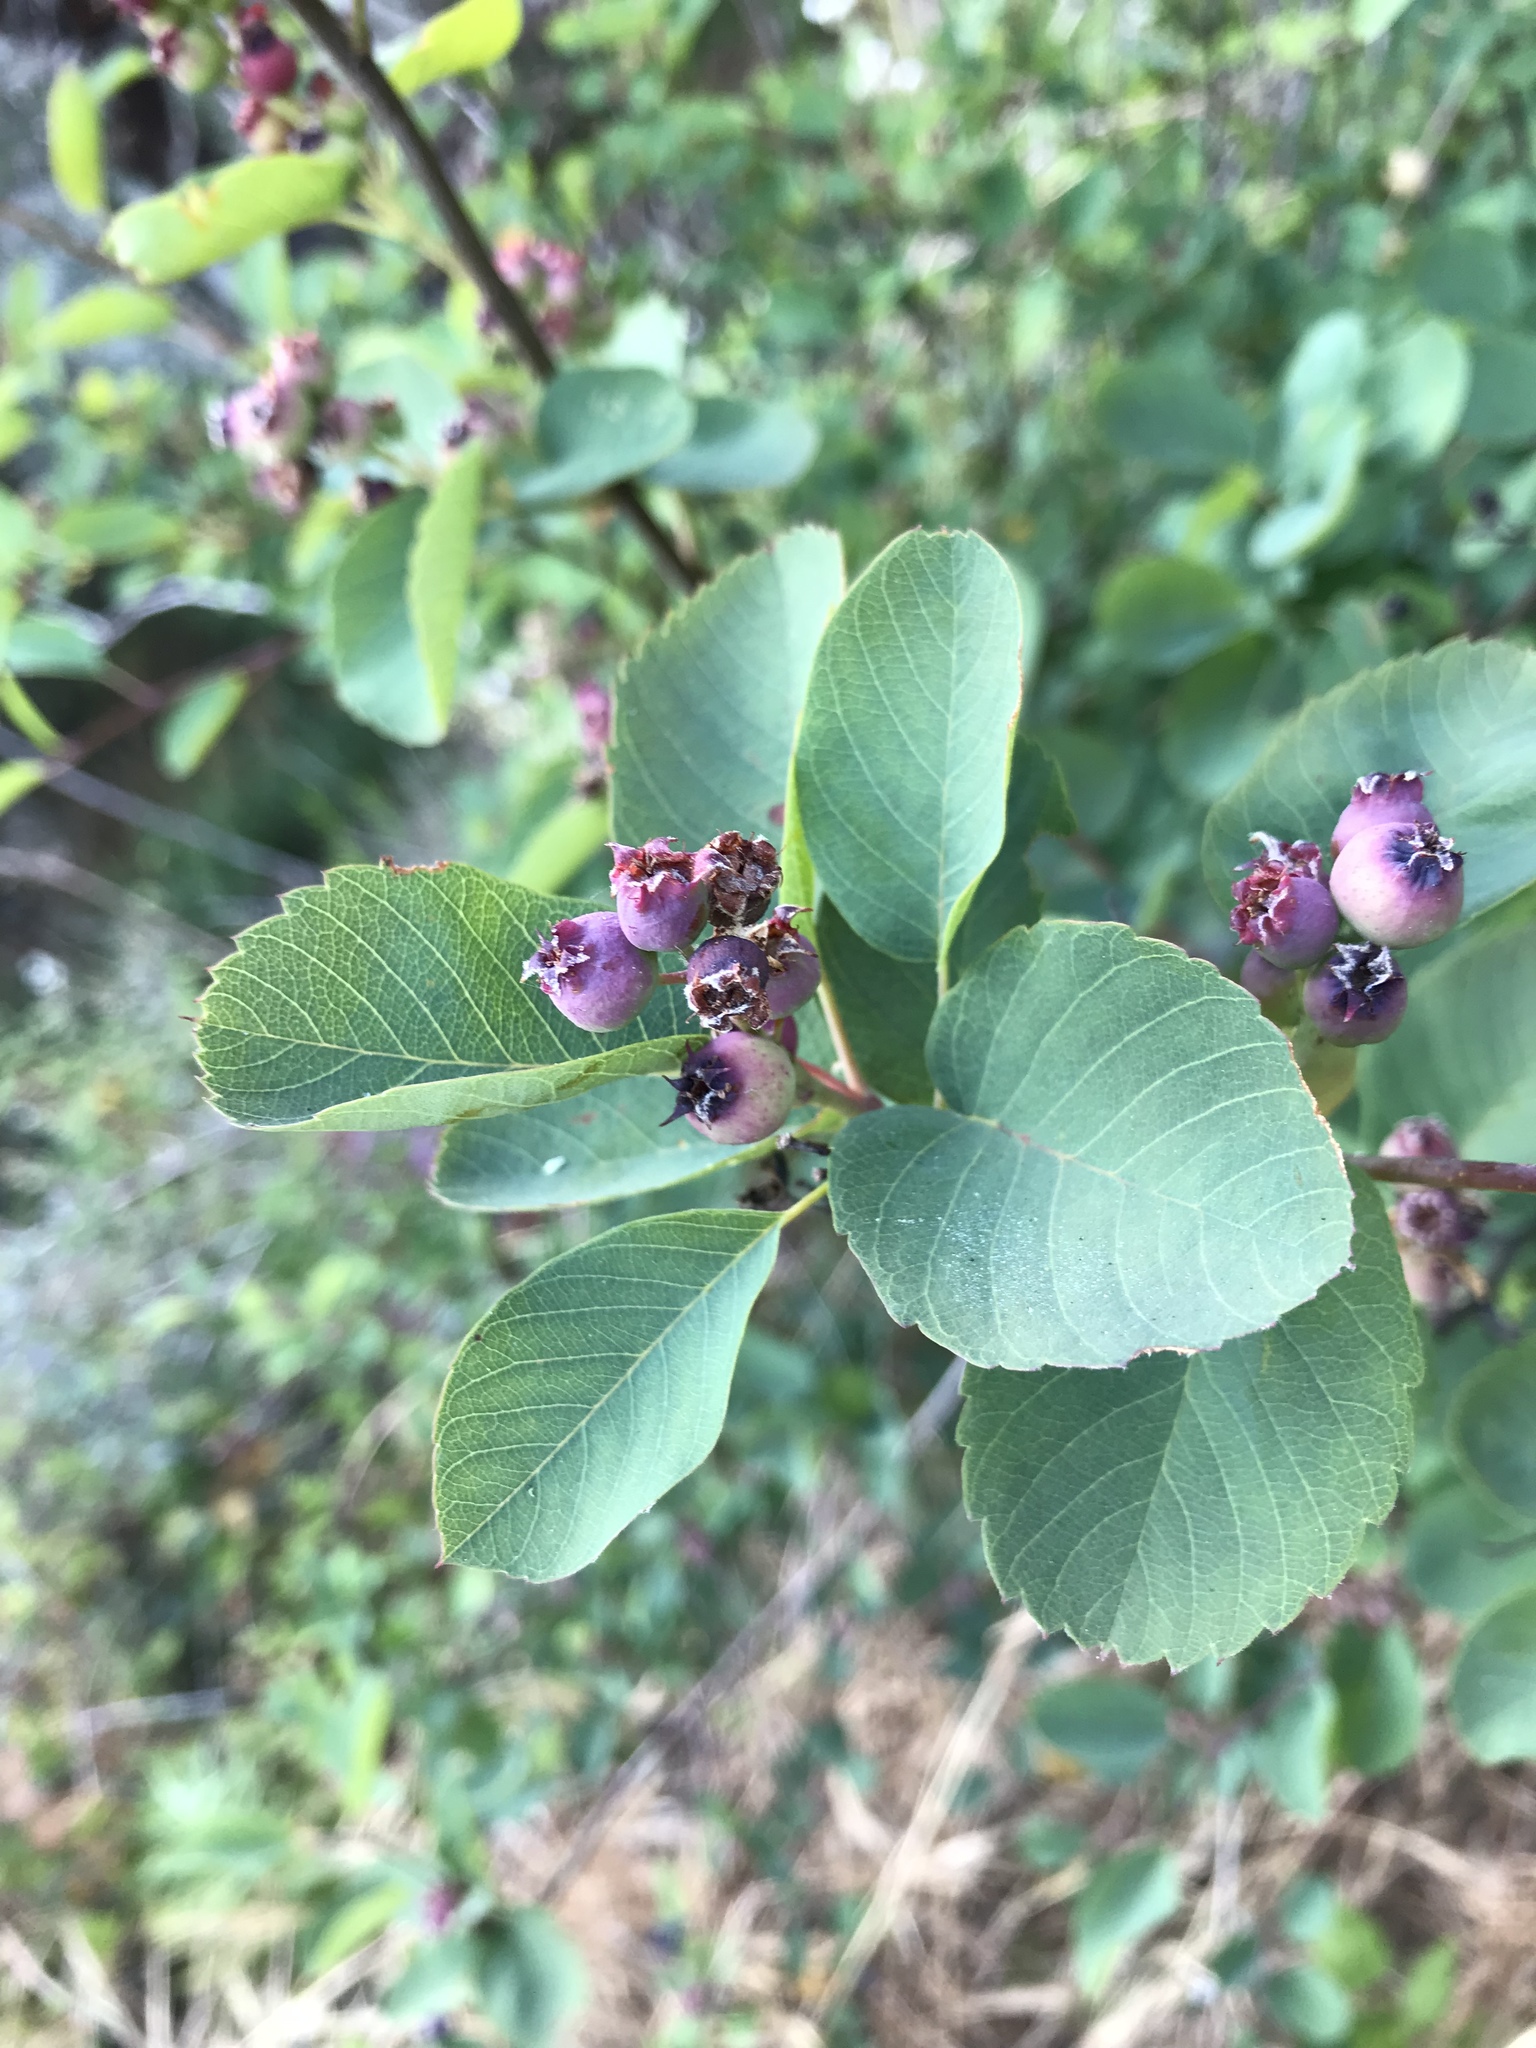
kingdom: Plantae
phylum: Tracheophyta
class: Magnoliopsida
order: Rosales
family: Rosaceae
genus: Amelanchier
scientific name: Amelanchier alnifolia
